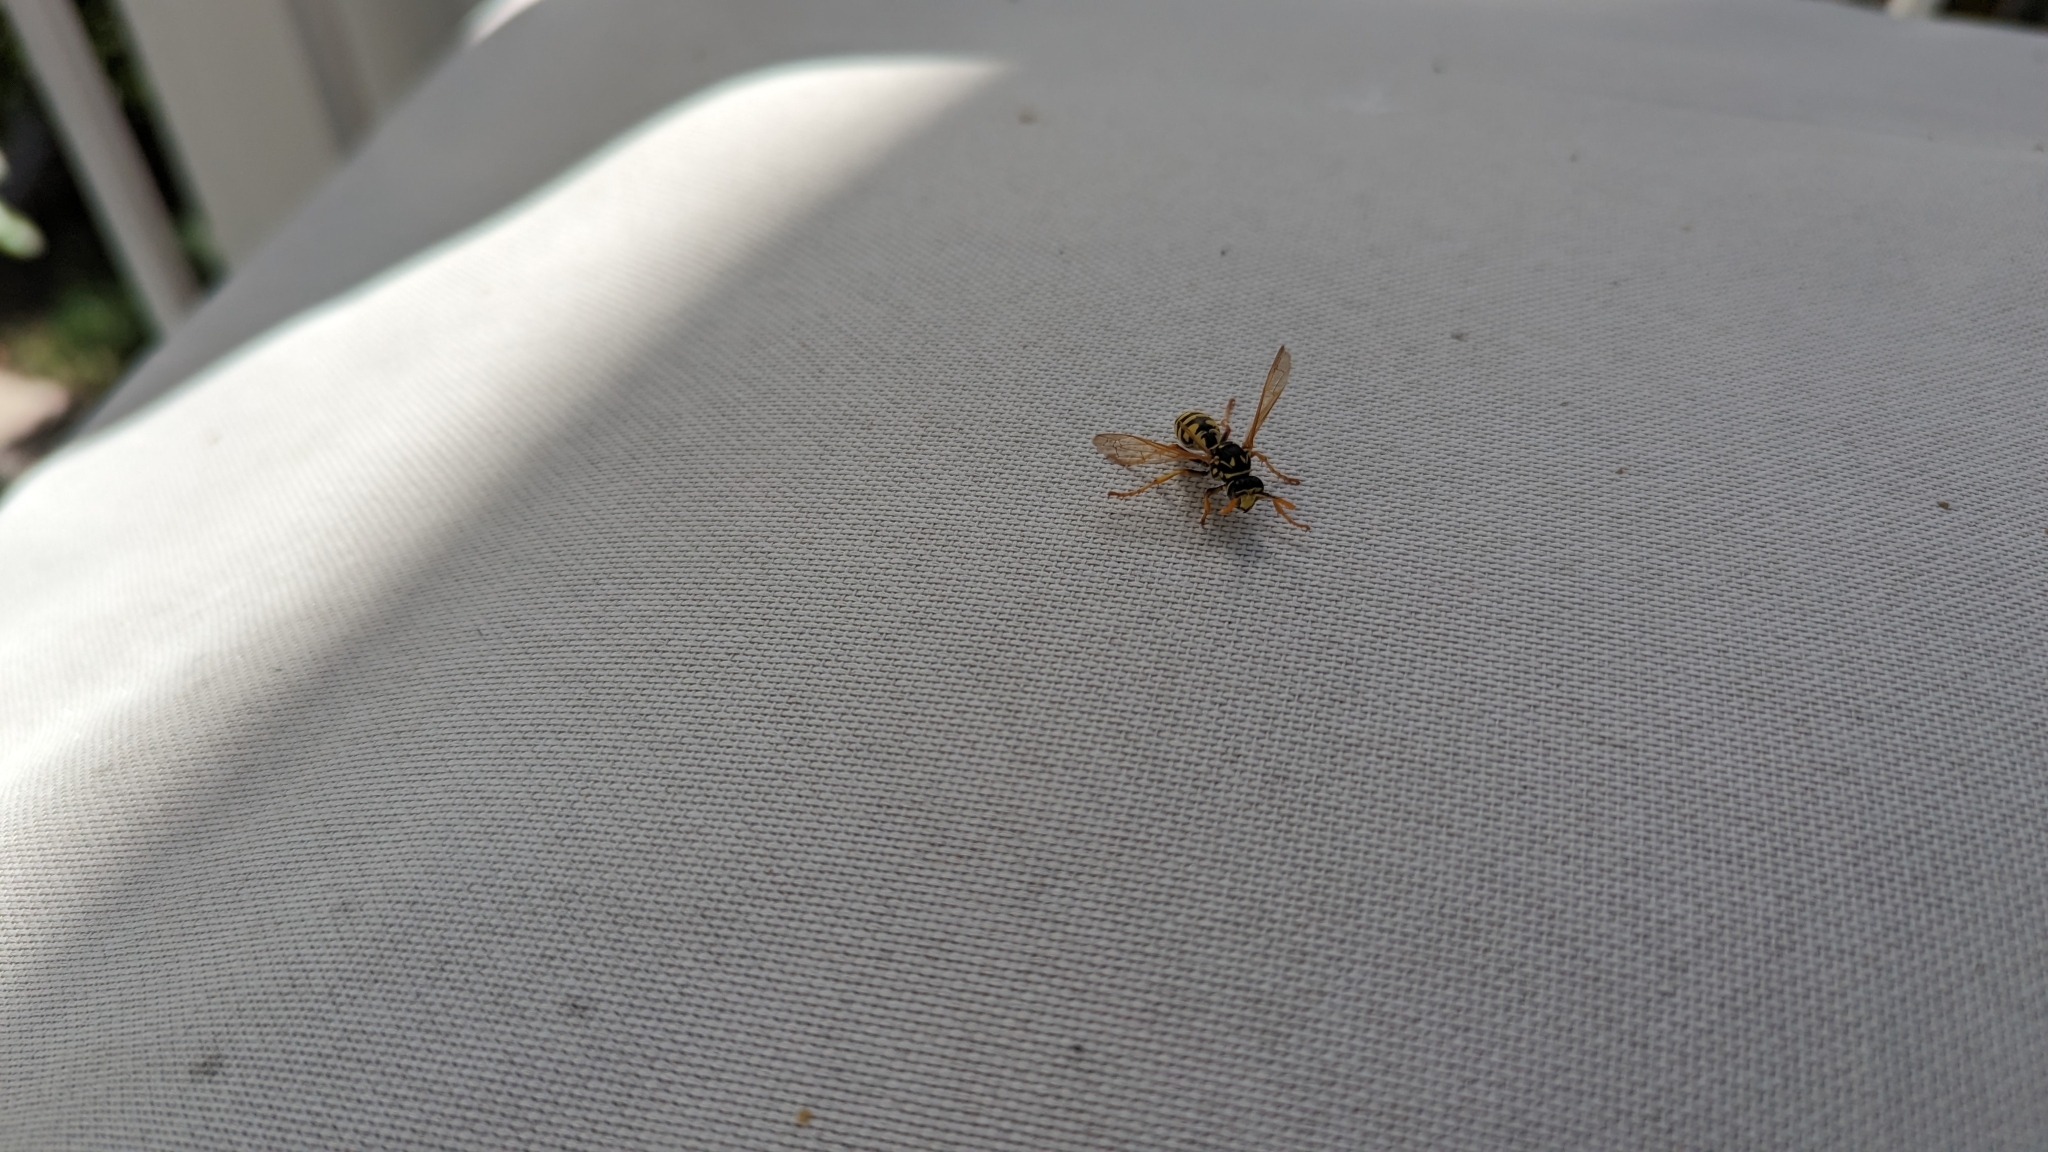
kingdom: Animalia
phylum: Arthropoda
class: Insecta
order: Hymenoptera
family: Eumenidae
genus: Polistes
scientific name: Polistes dominula
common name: Paper wasp
